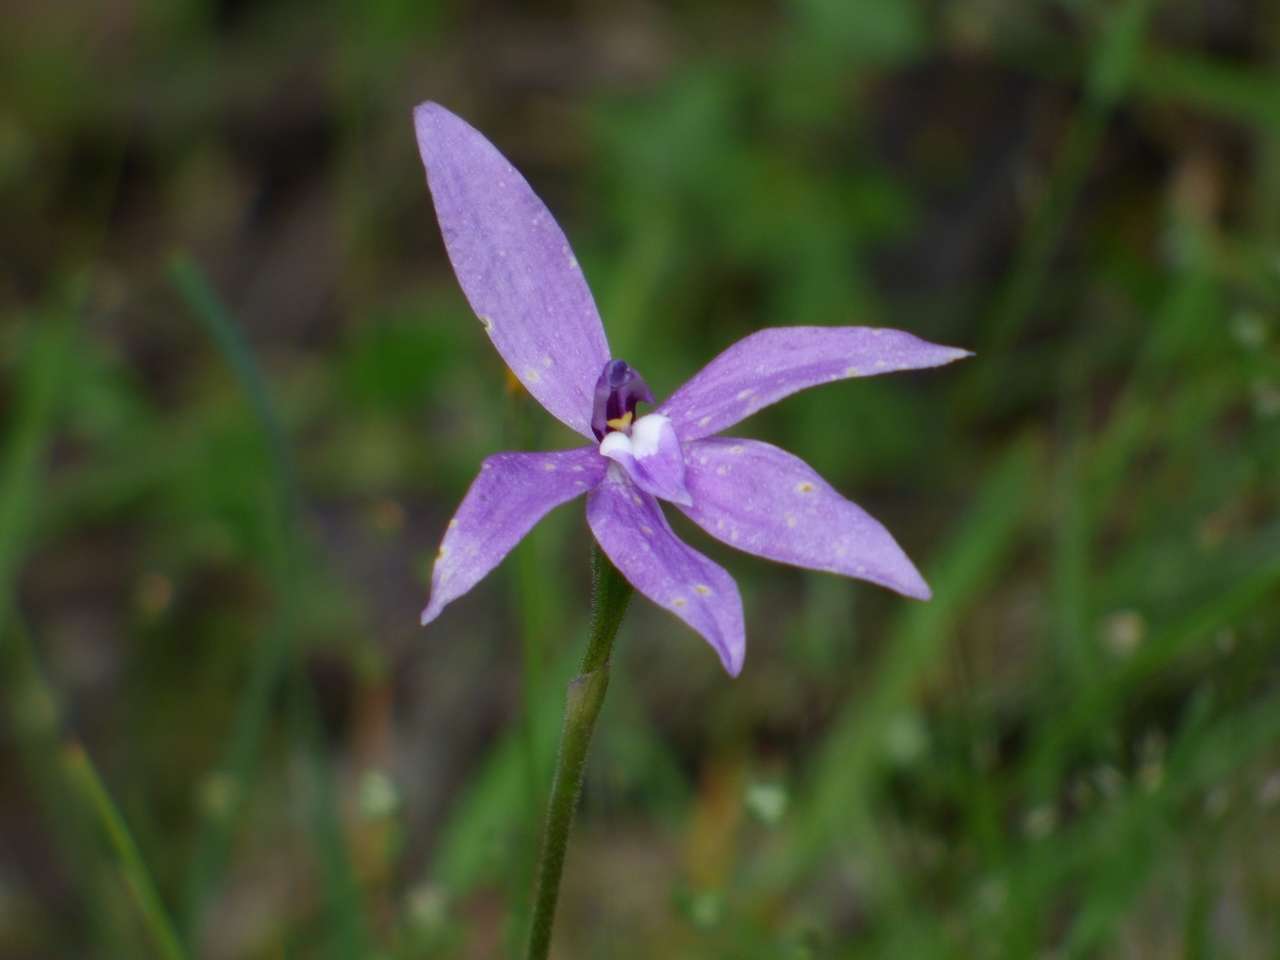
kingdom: Plantae
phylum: Tracheophyta
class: Liliopsida
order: Asparagales
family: Orchidaceae
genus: Caladenia
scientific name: Caladenia major
